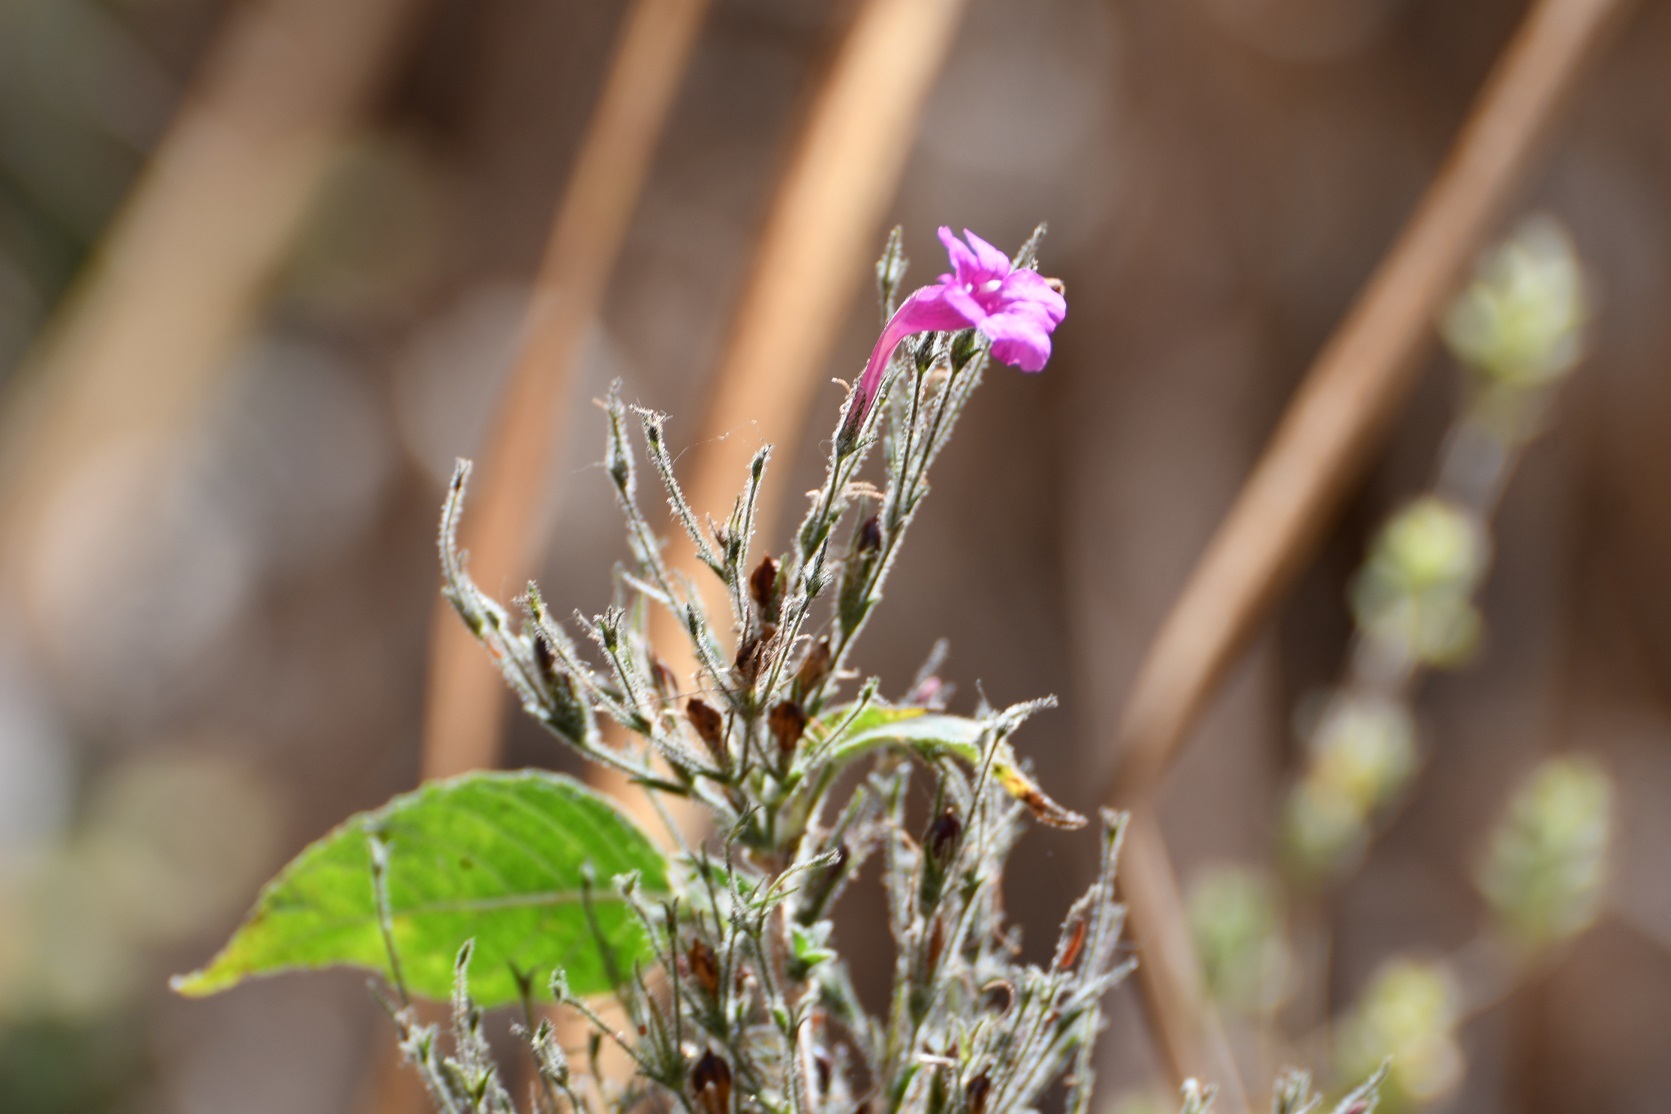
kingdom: Plantae
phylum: Tracheophyta
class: Magnoliopsida
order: Lamiales
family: Acanthaceae
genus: Ruellia
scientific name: Ruellia inundata
